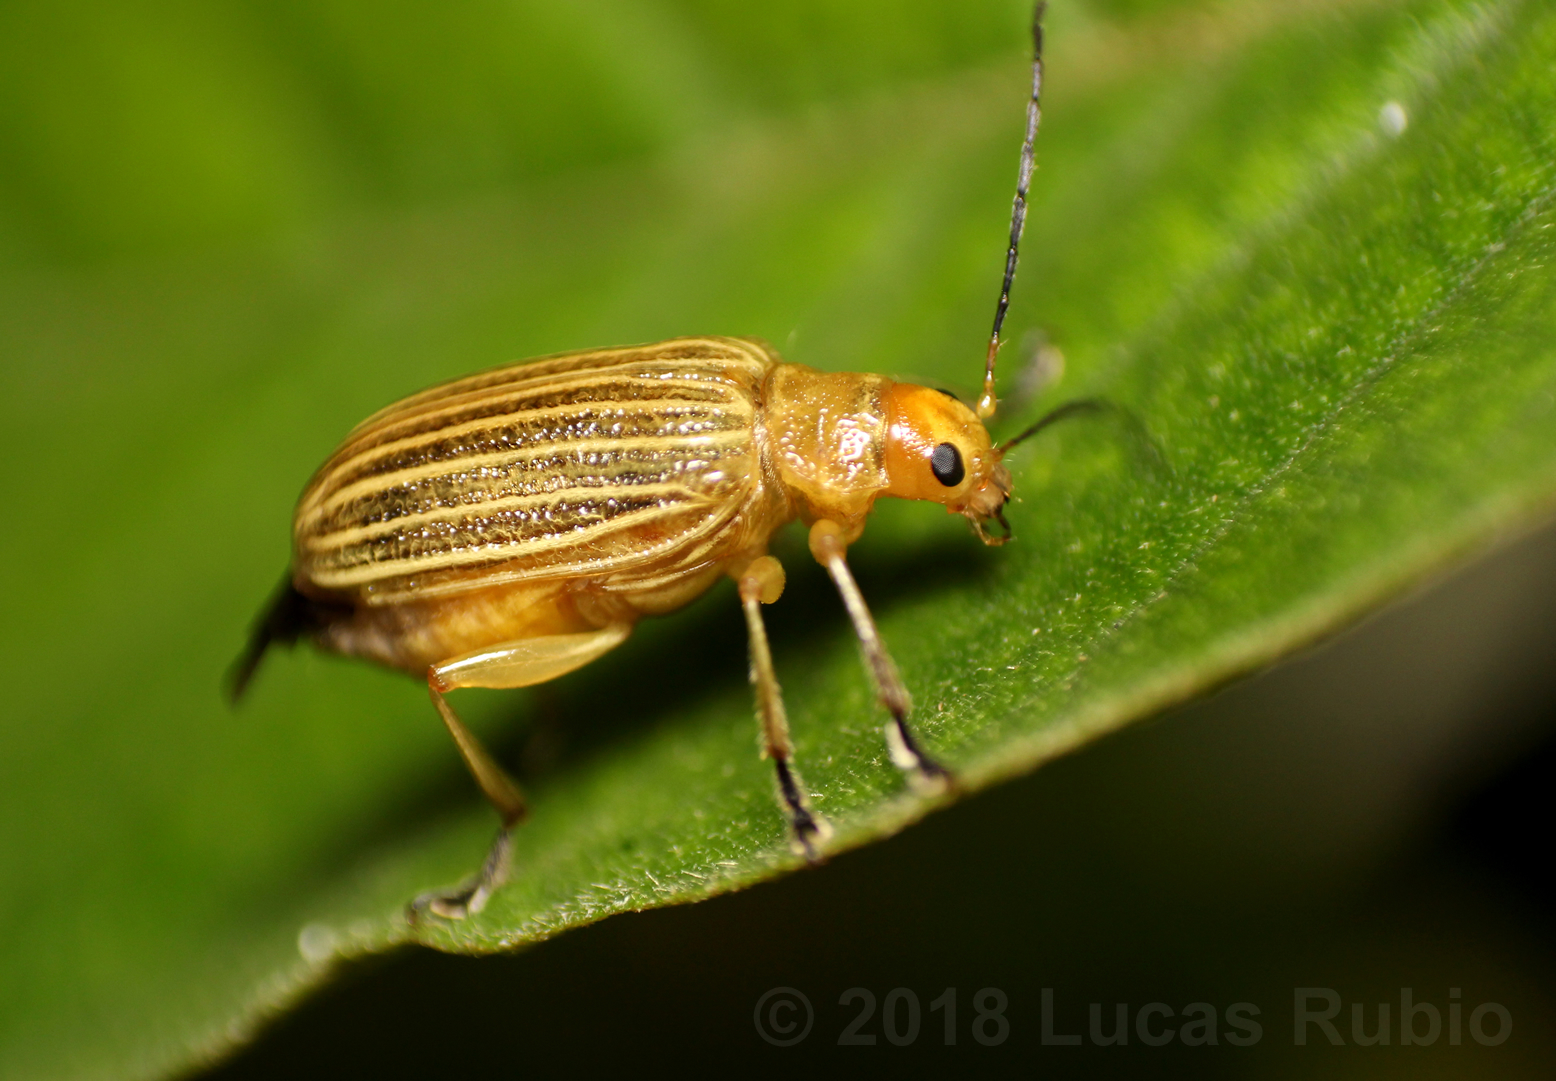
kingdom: Animalia
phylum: Arthropoda
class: Insecta
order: Coleoptera
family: Chrysomelidae
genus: Metaxyonycha
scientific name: Metaxyonycha
